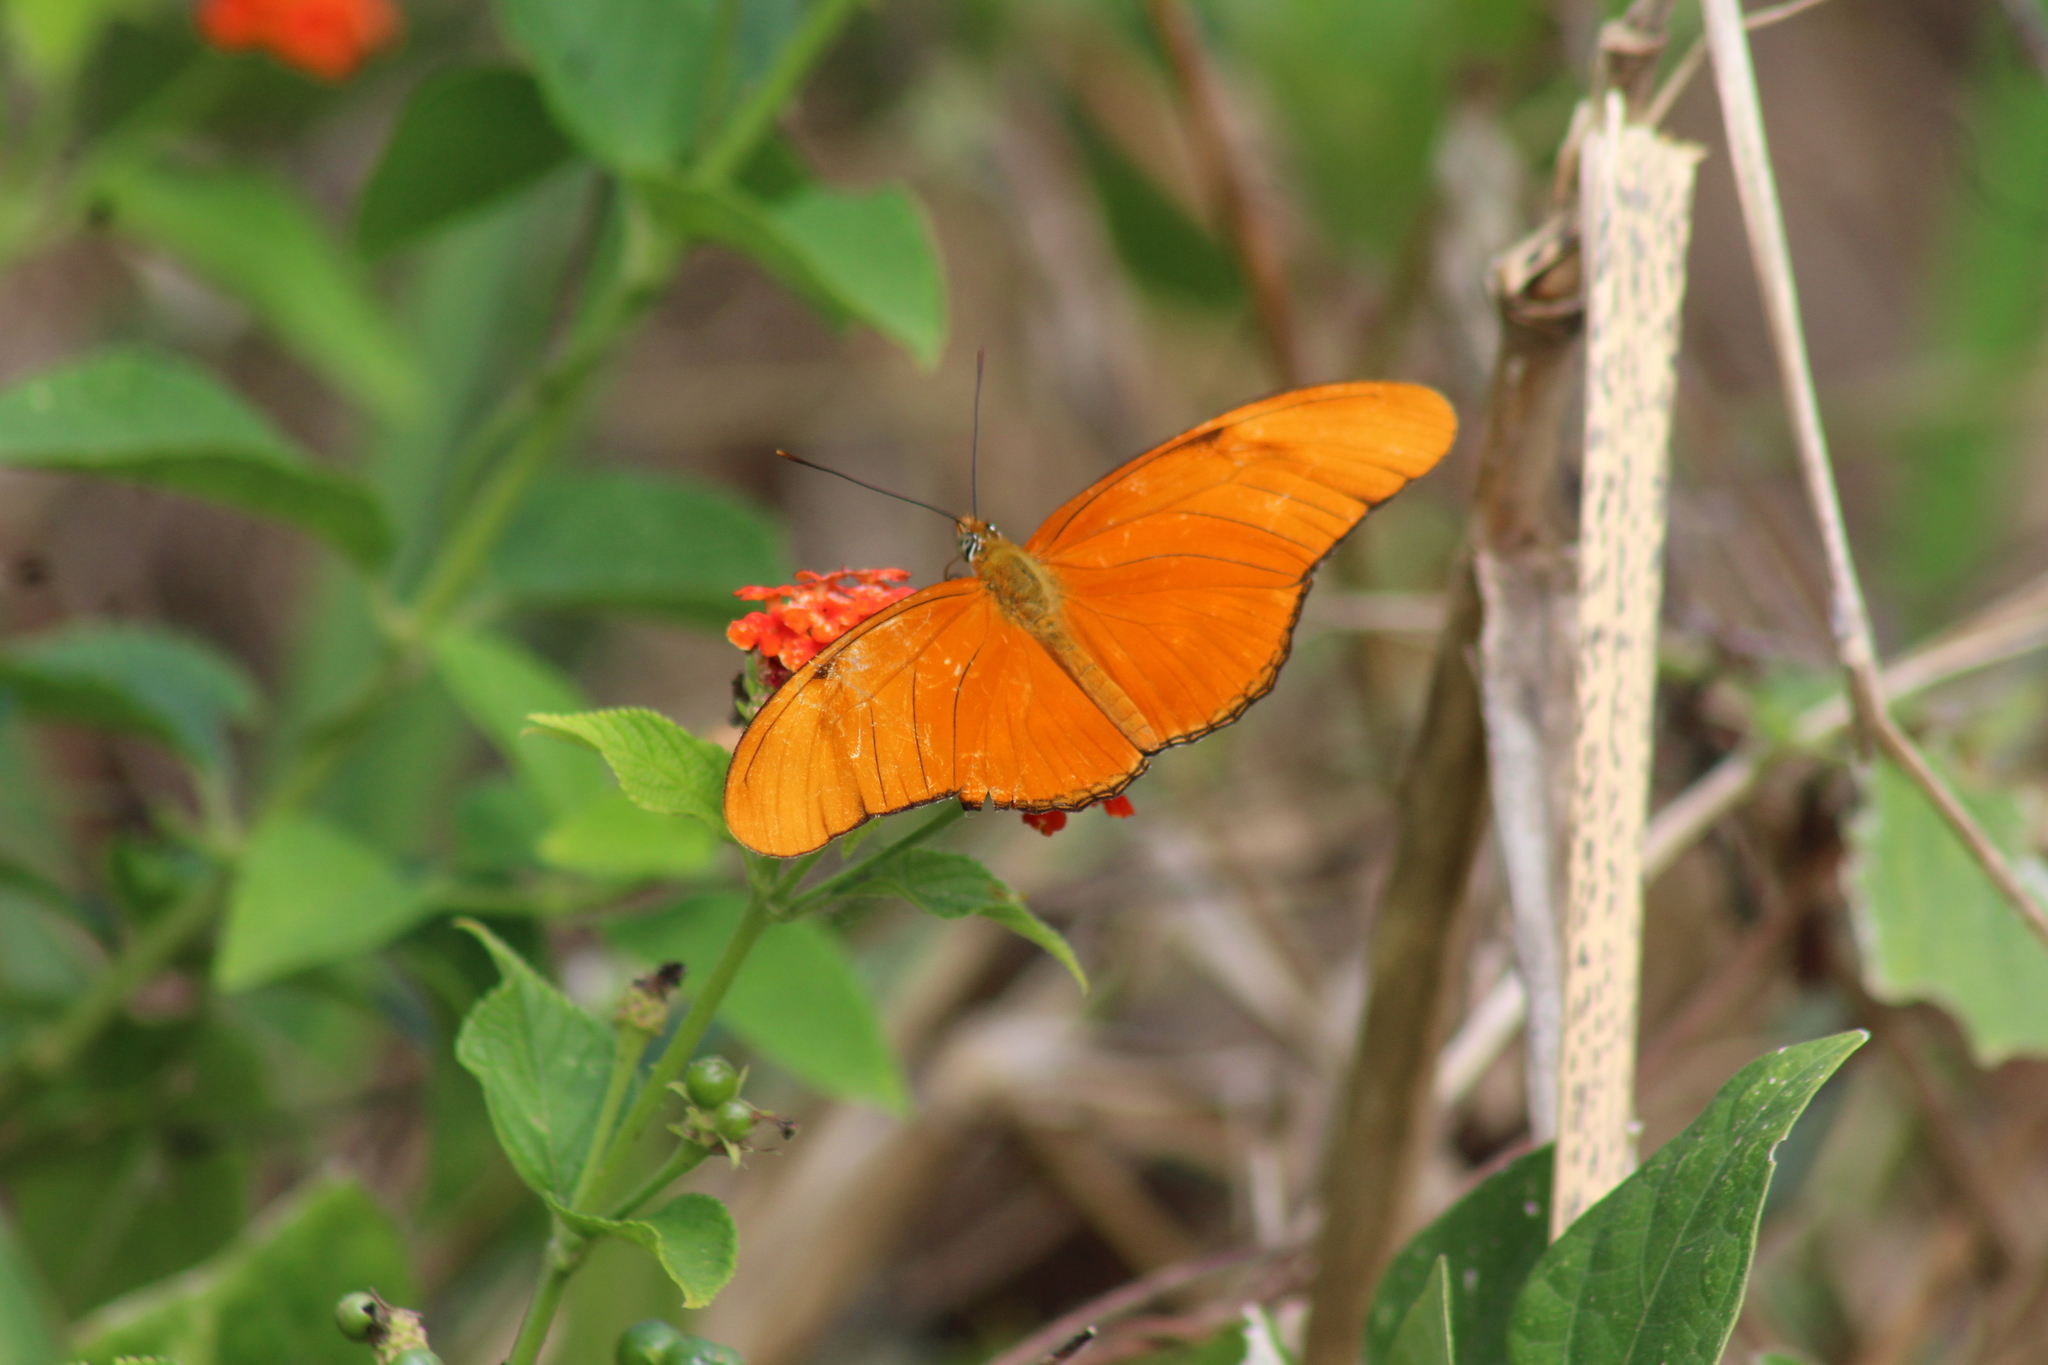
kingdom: Animalia
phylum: Arthropoda
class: Insecta
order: Lepidoptera
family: Nymphalidae
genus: Dryas
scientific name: Dryas iulia
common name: Flambeau
